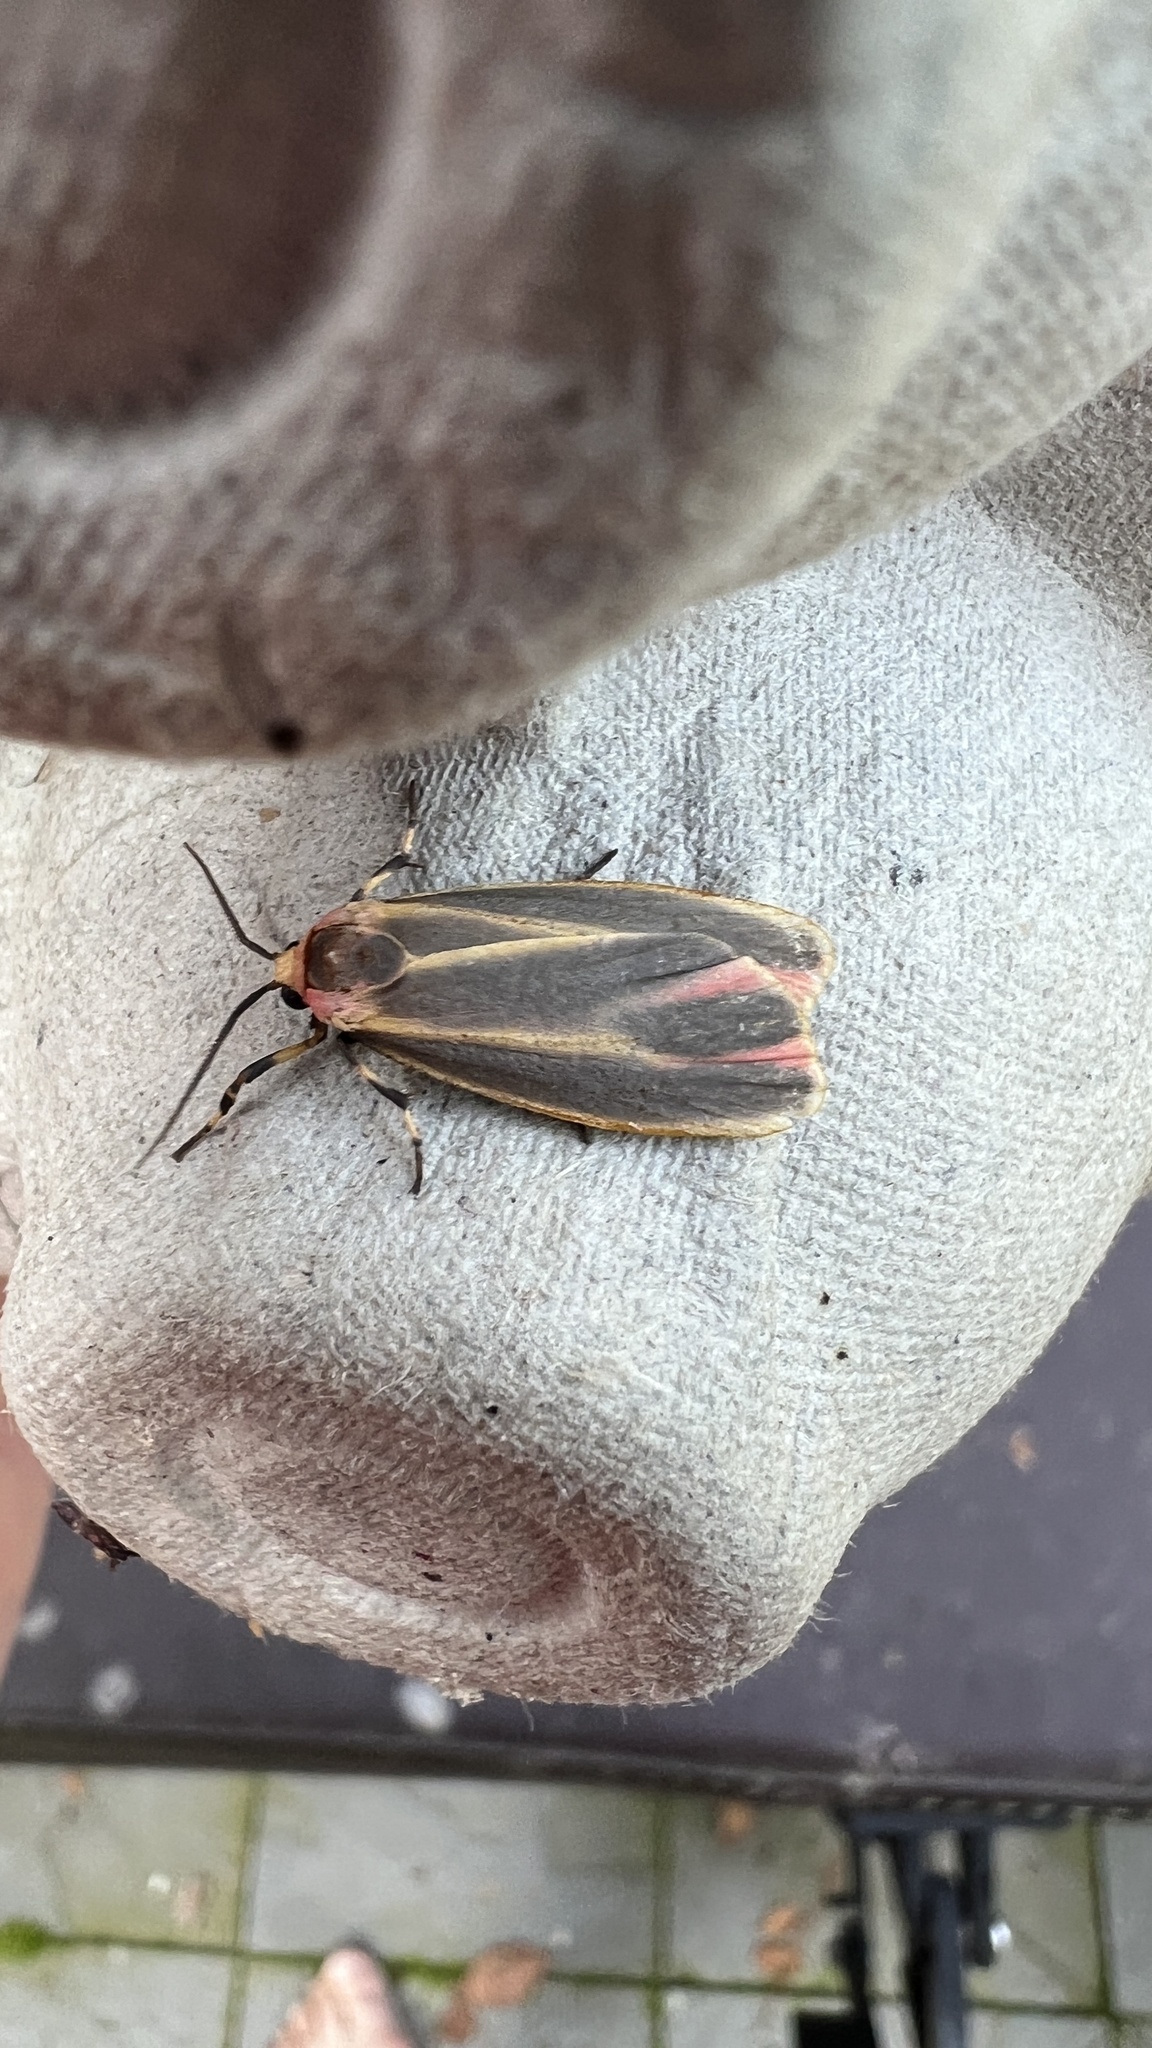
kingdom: Animalia
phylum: Arthropoda
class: Insecta
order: Lepidoptera
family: Erebidae
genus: Hypoprepia
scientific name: Hypoprepia fucosa
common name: Painted lichen moth
